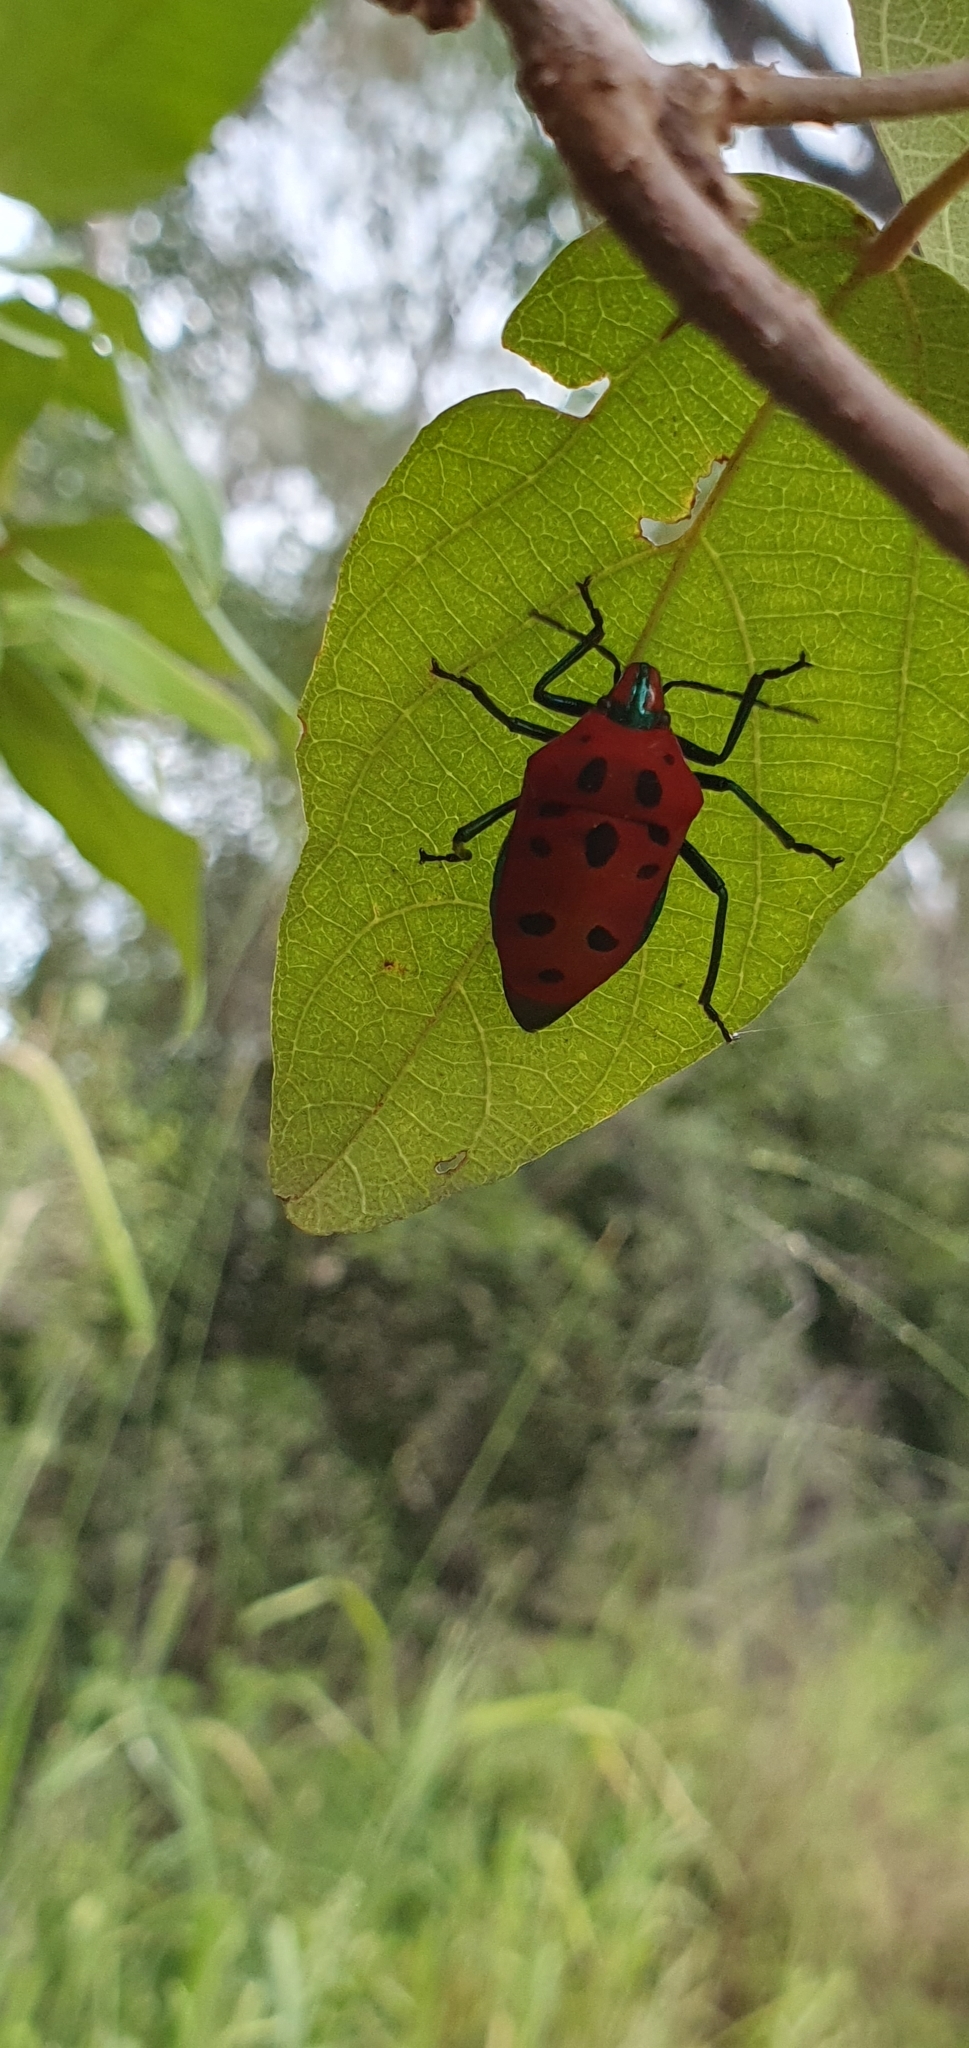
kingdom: Animalia
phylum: Arthropoda
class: Insecta
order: Hemiptera
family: Scutelleridae
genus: Cantao
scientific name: Cantao
